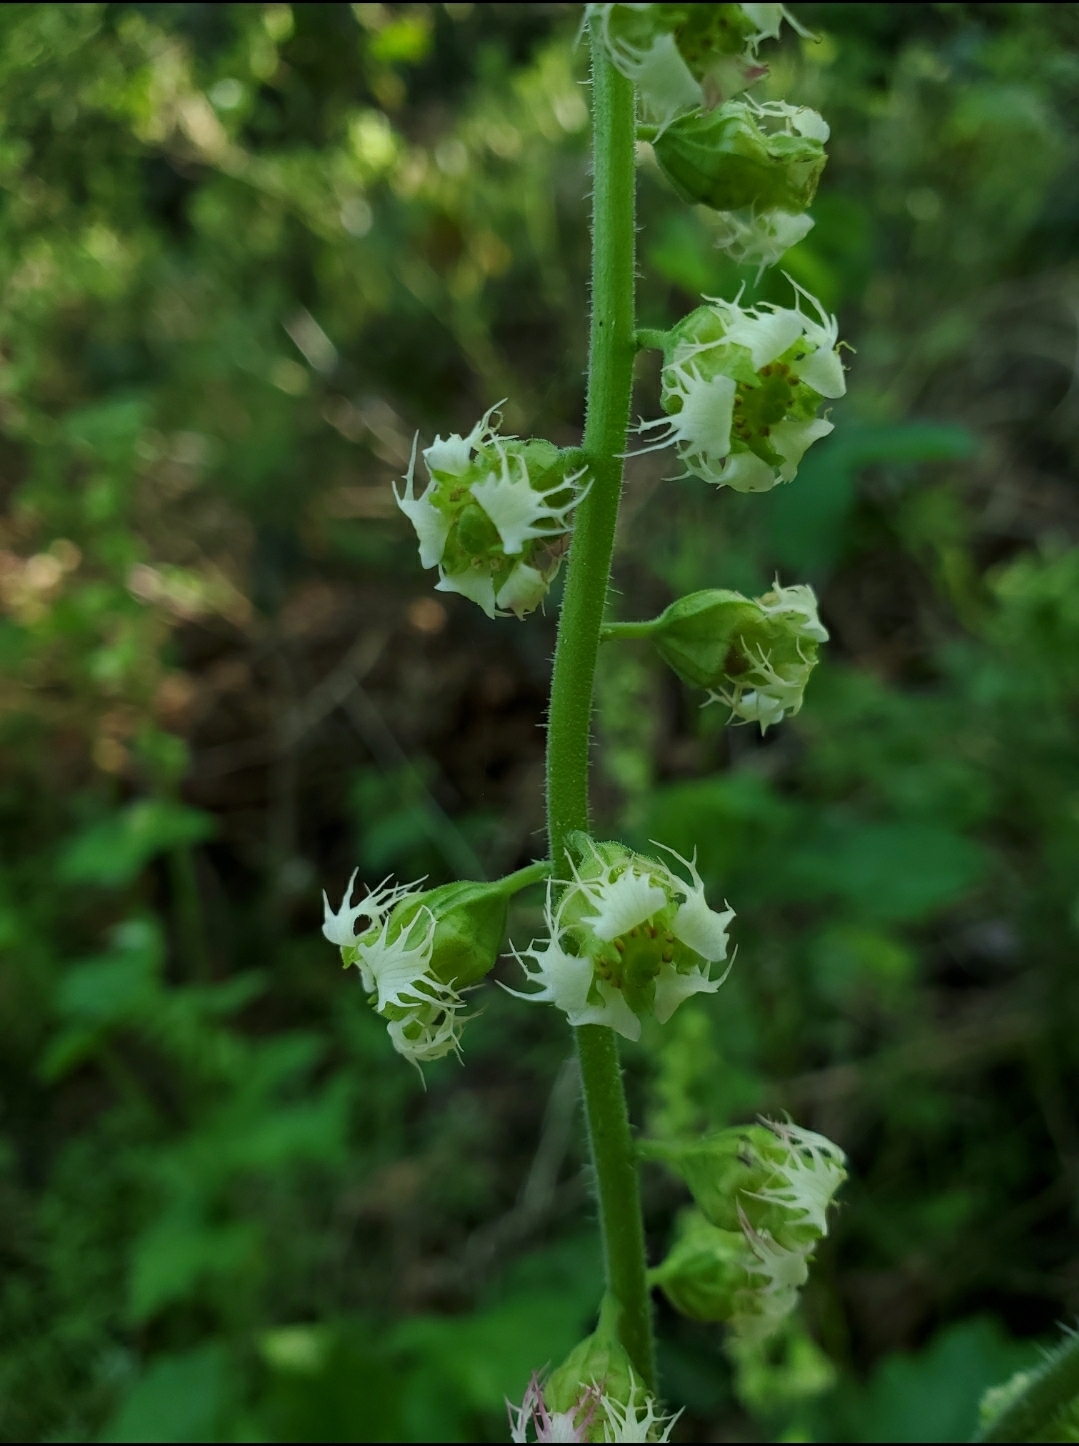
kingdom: Plantae
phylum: Tracheophyta
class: Magnoliopsida
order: Saxifragales
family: Saxifragaceae
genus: Tellima
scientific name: Tellima grandiflora
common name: Fringecups
